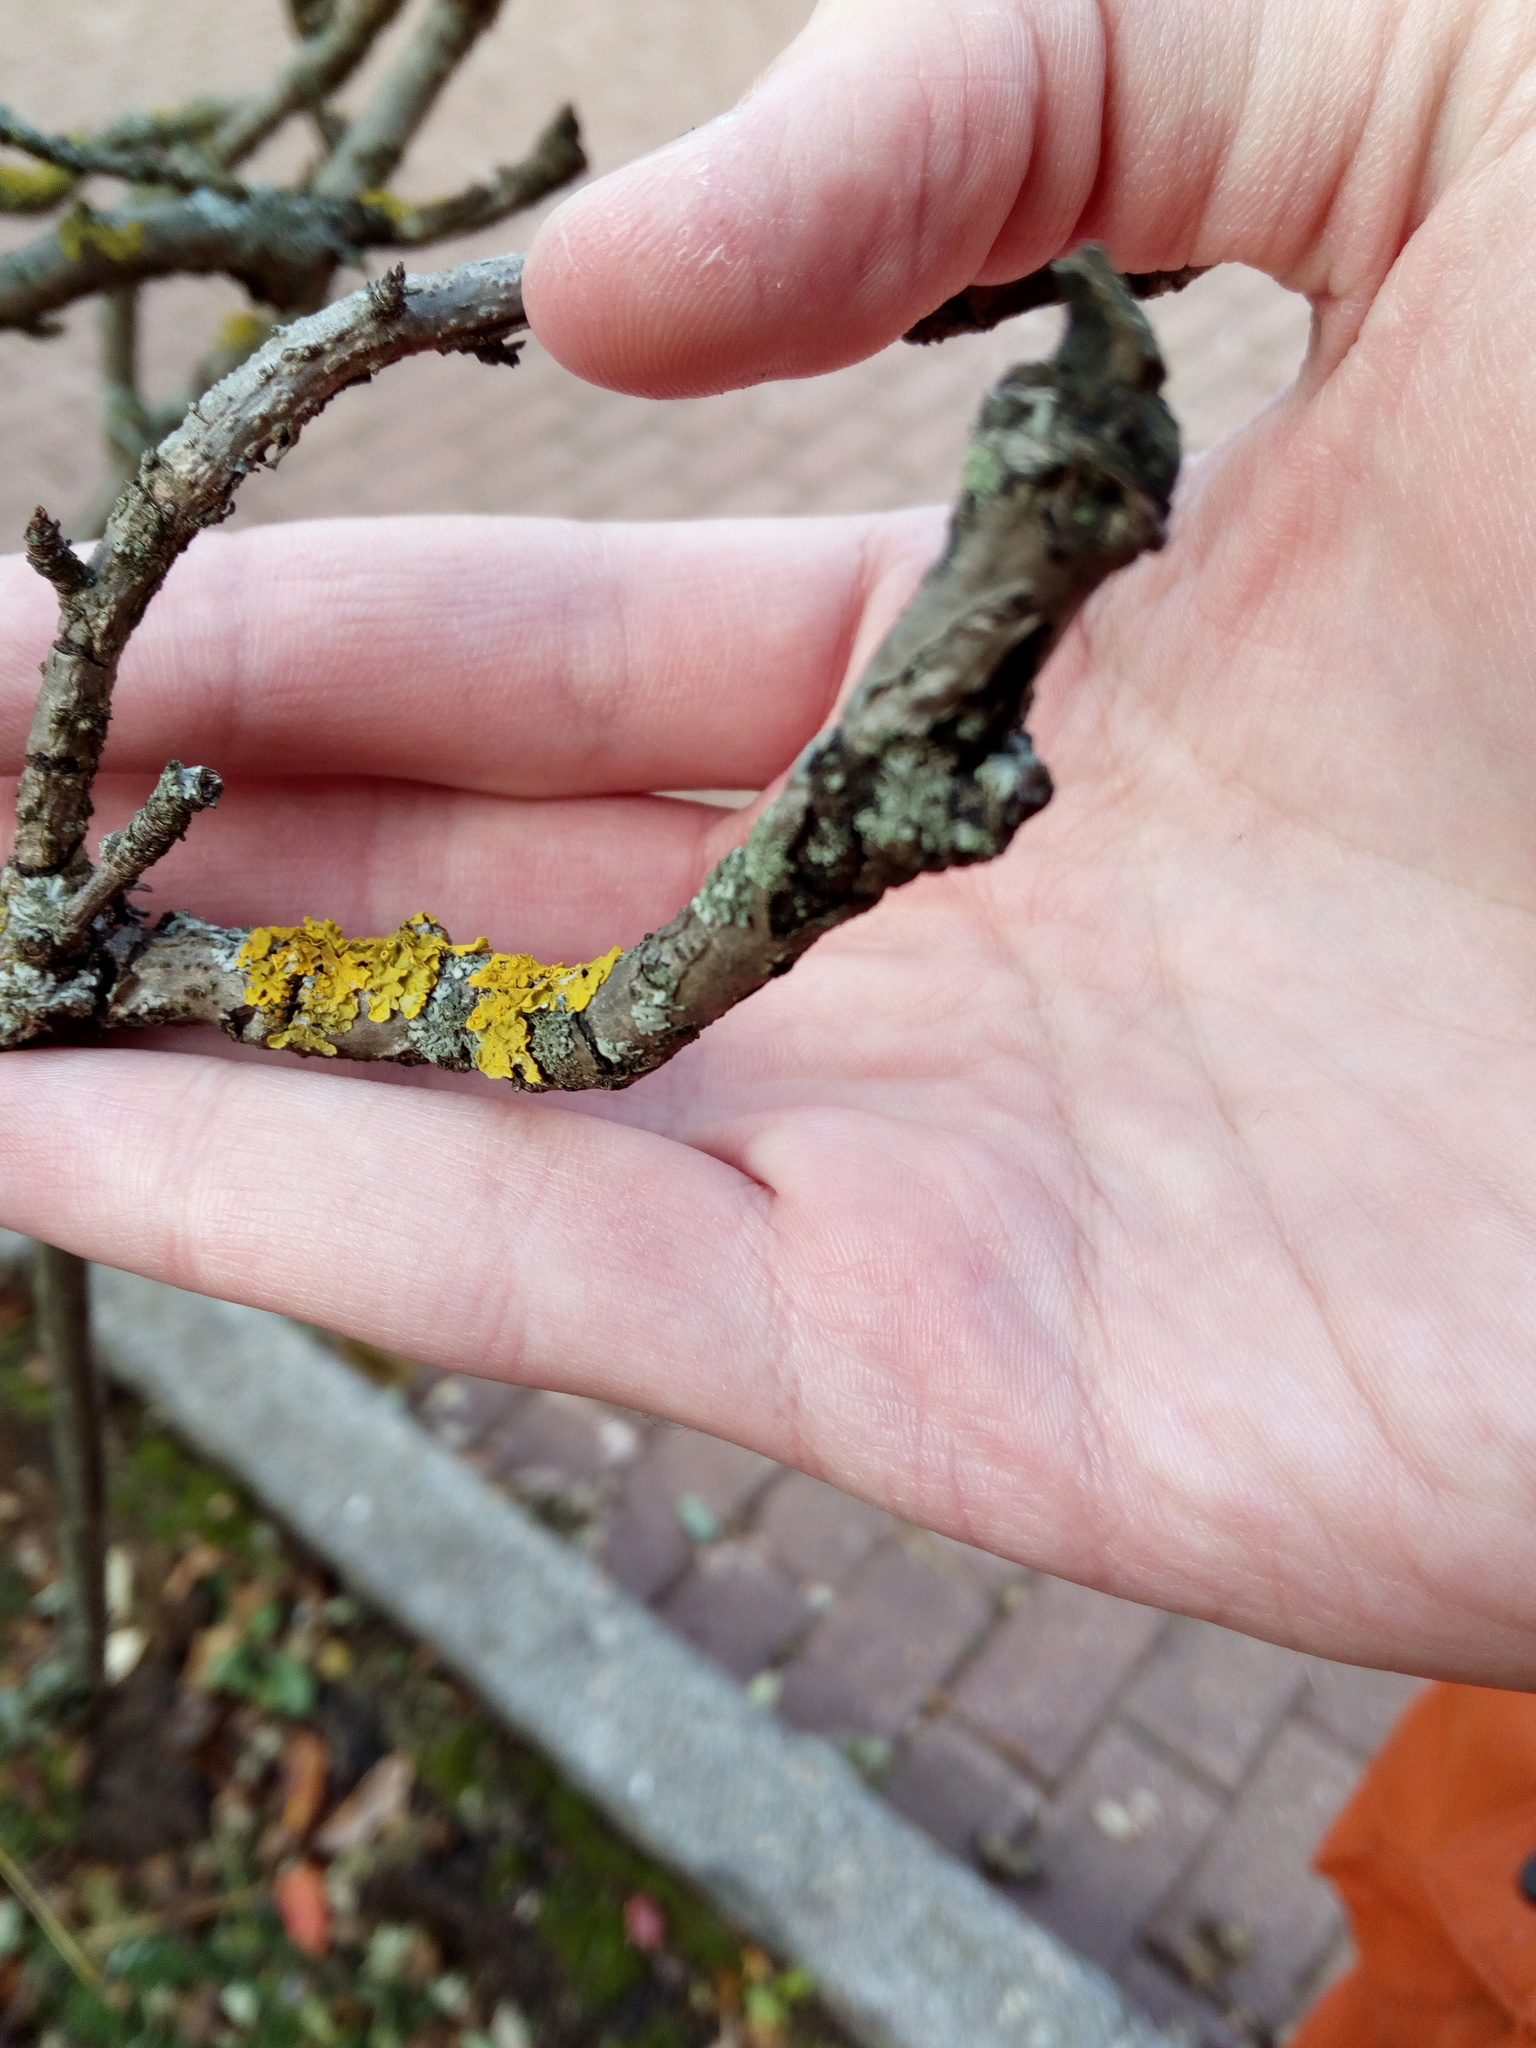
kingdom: Fungi
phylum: Ascomycota
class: Lecanoromycetes
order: Teloschistales
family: Teloschistaceae
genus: Xanthoria
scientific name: Xanthoria parietina
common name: Common orange lichen
